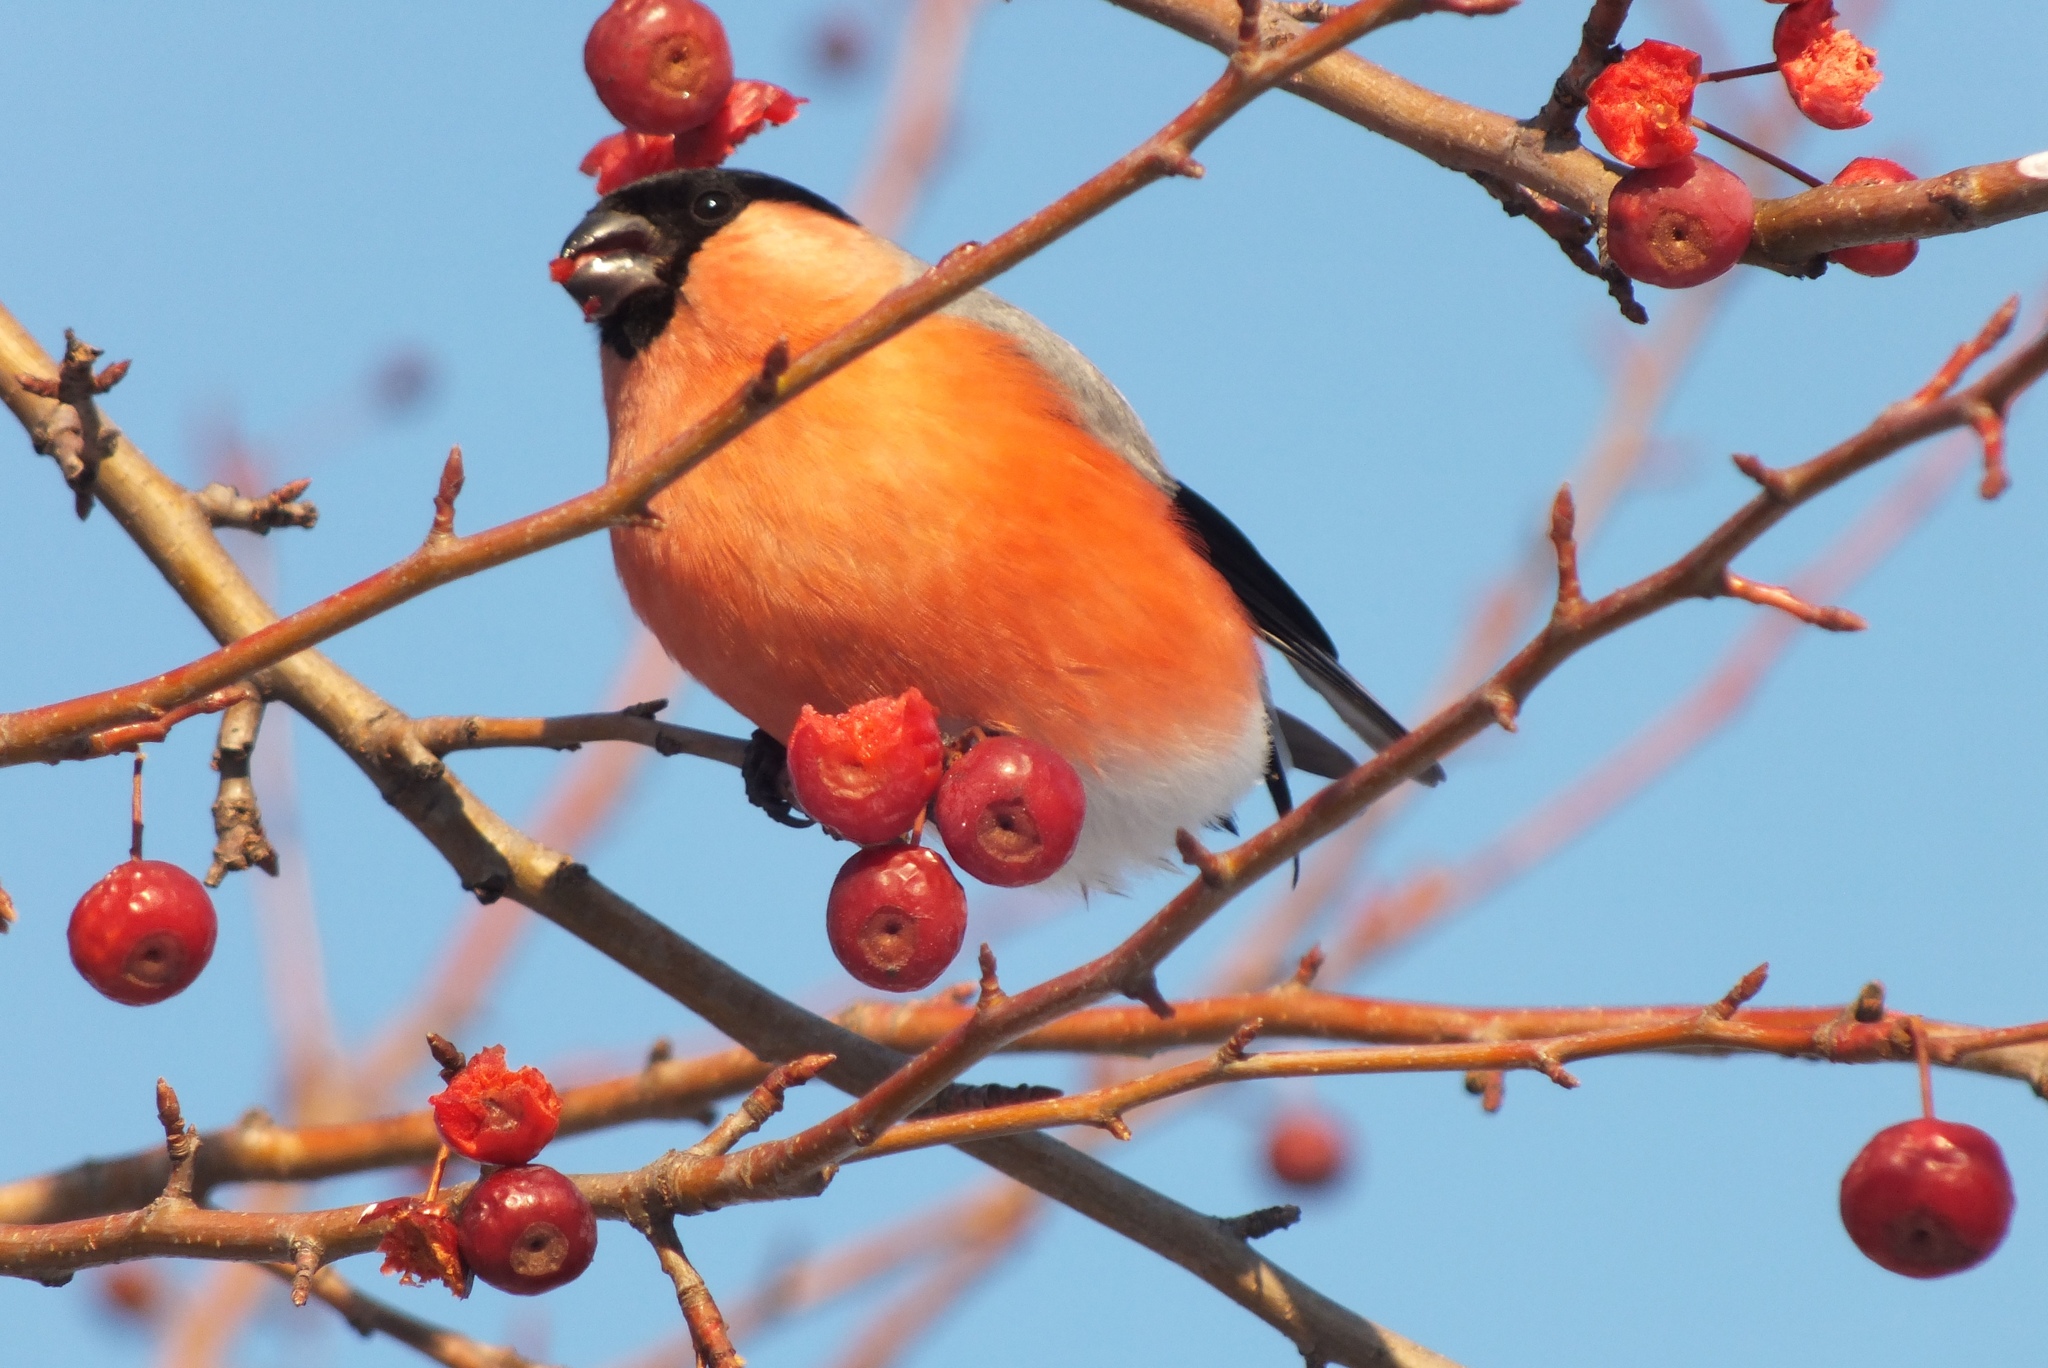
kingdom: Animalia
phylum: Chordata
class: Aves
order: Passeriformes
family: Fringillidae
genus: Pyrrhula
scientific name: Pyrrhula pyrrhula
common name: Eurasian bullfinch
